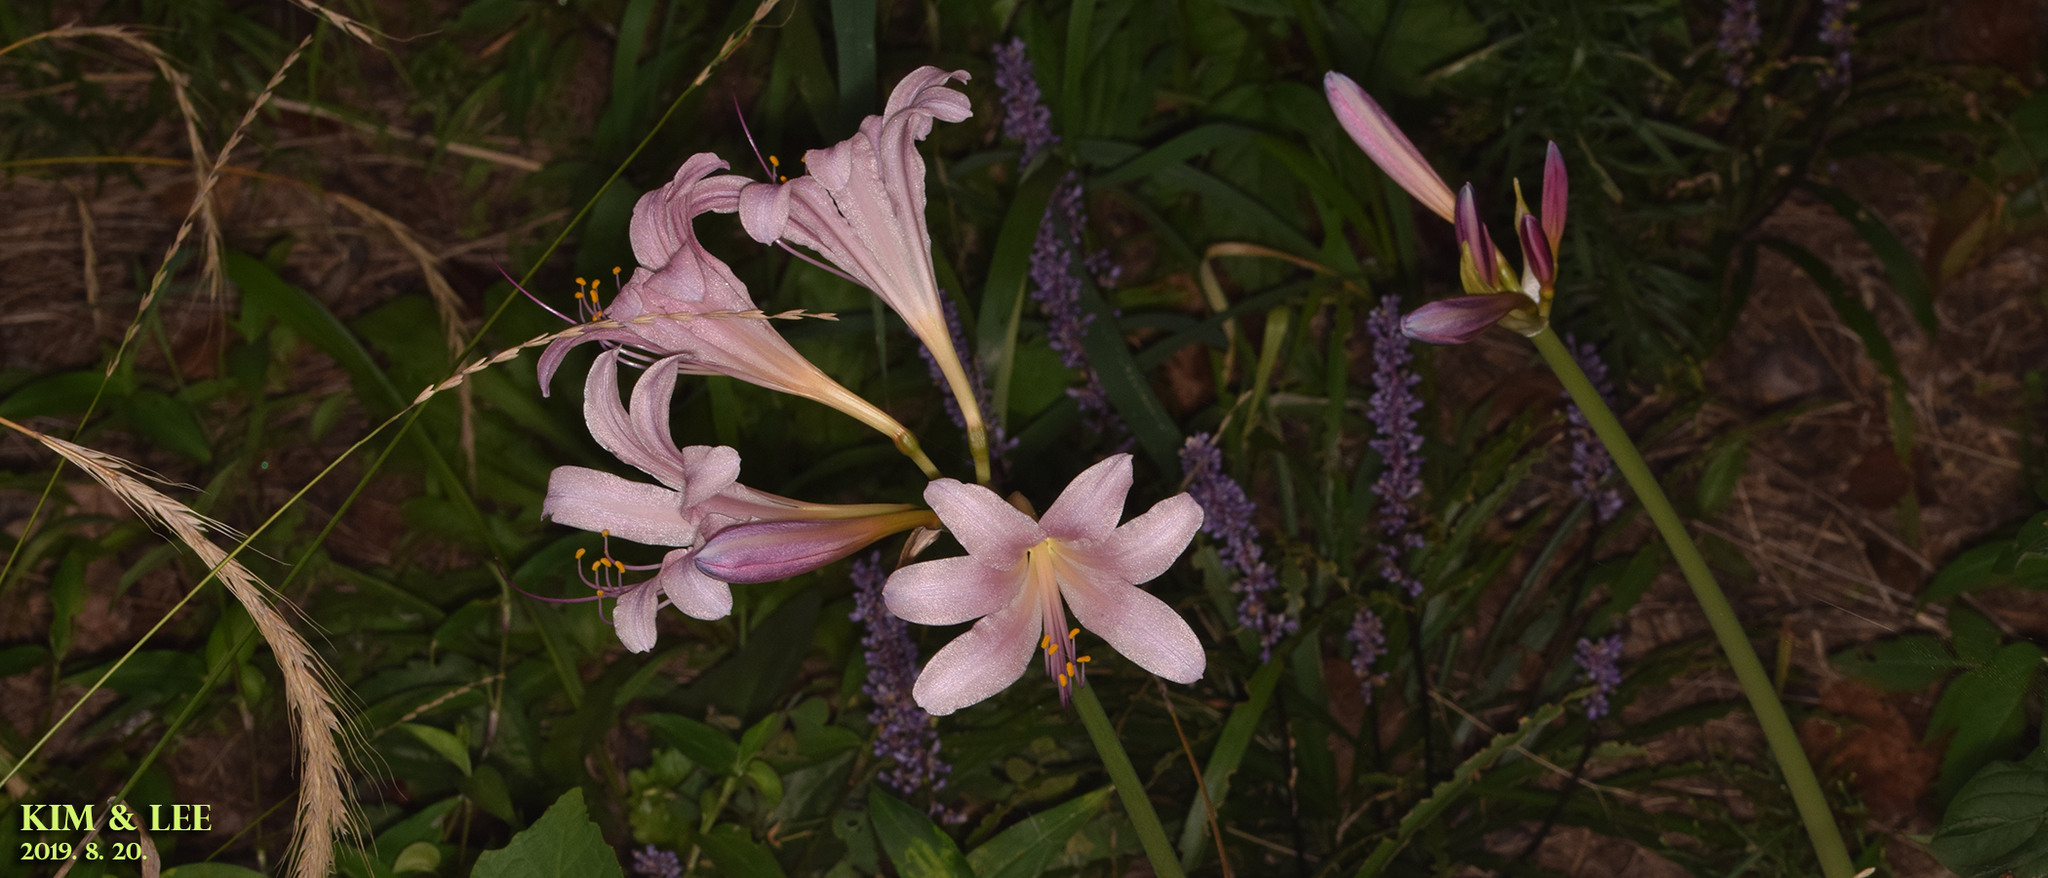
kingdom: Plantae
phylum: Tracheophyta
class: Liliopsida
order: Asparagales
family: Amaryllidaceae
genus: Lycoris
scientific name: Lycoris squamigera
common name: Magic-lily
